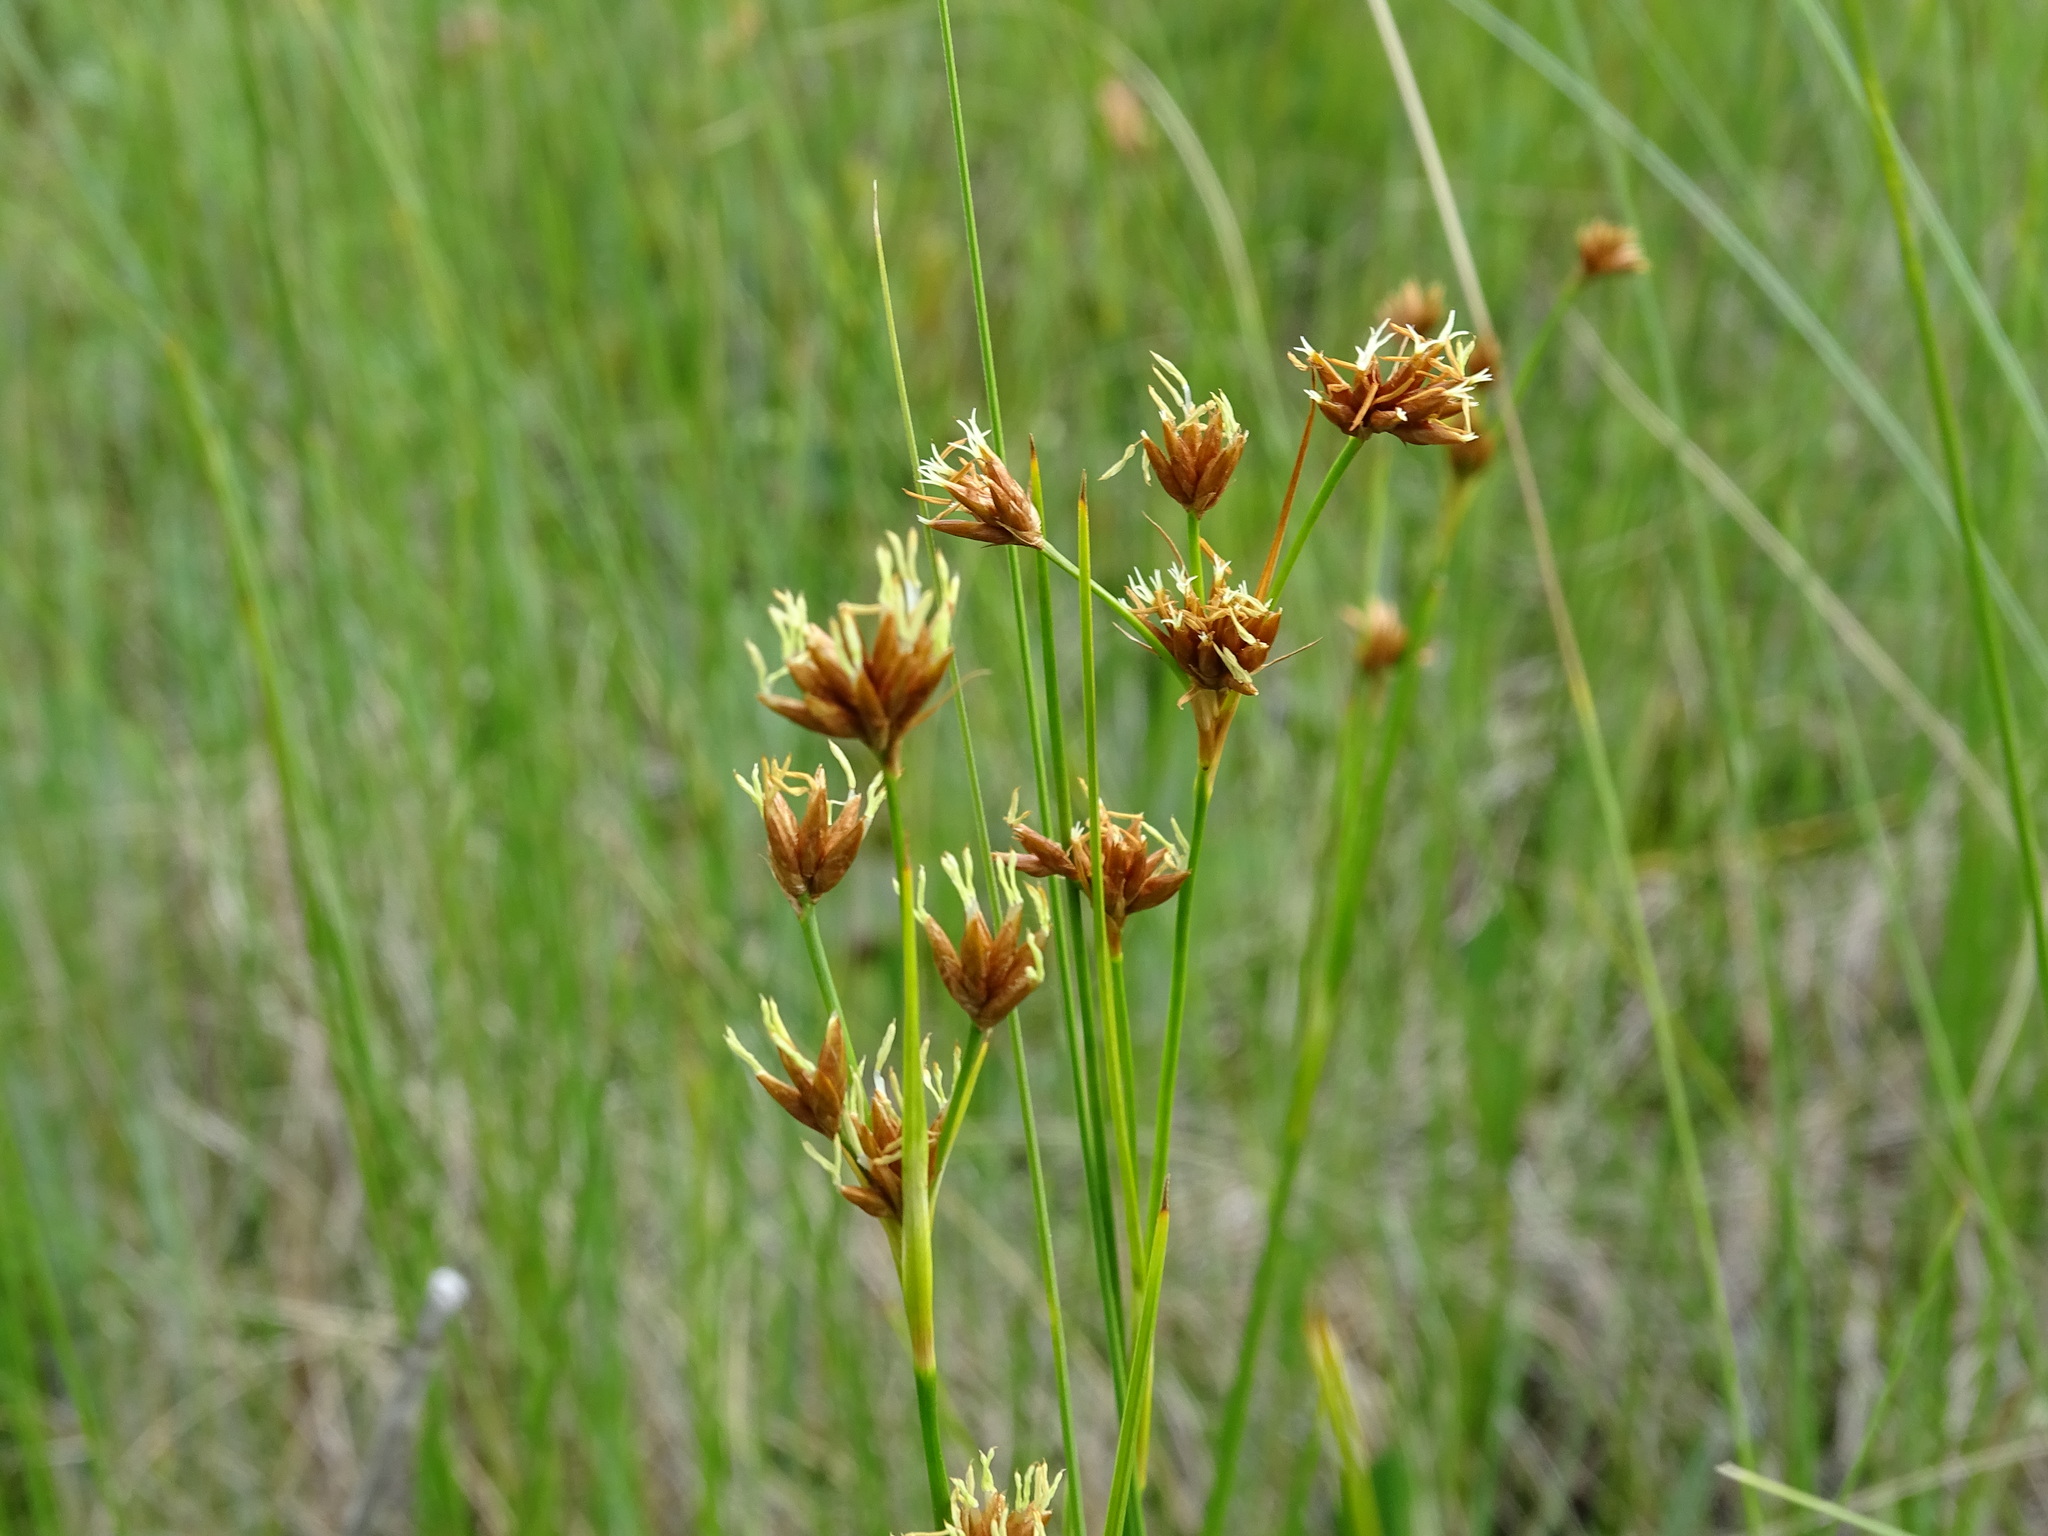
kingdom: Plantae
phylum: Tracheophyta
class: Liliopsida
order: Poales
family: Cyperaceae
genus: Cladium
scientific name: Cladium mariscoides
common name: Smooth sawgrass
